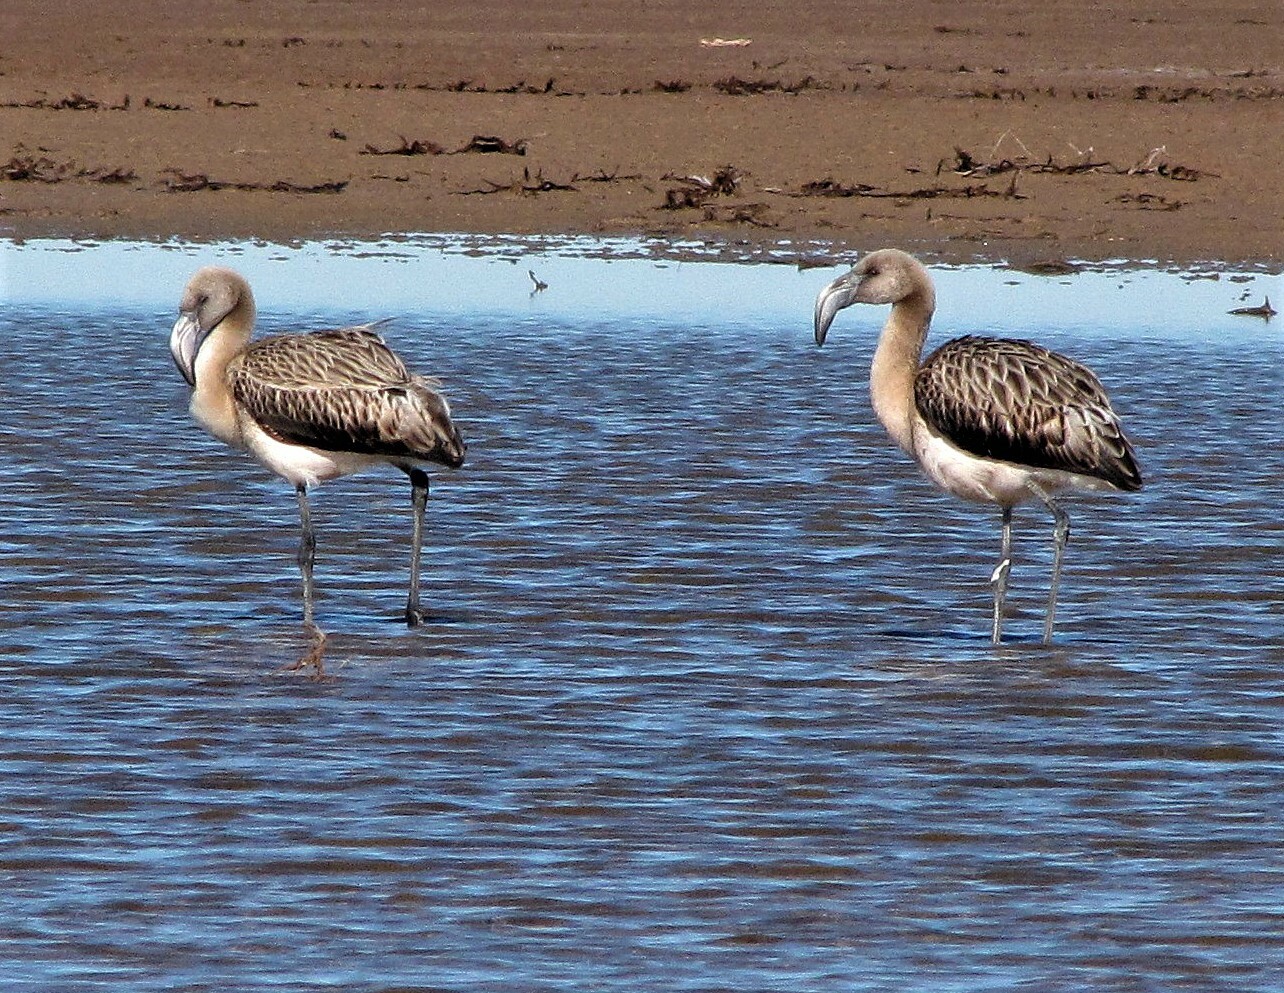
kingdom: Animalia
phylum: Chordata
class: Aves
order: Phoenicopteriformes
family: Phoenicopteridae
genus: Phoenicopterus
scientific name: Phoenicopterus chilensis
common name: Chilean flamingo
